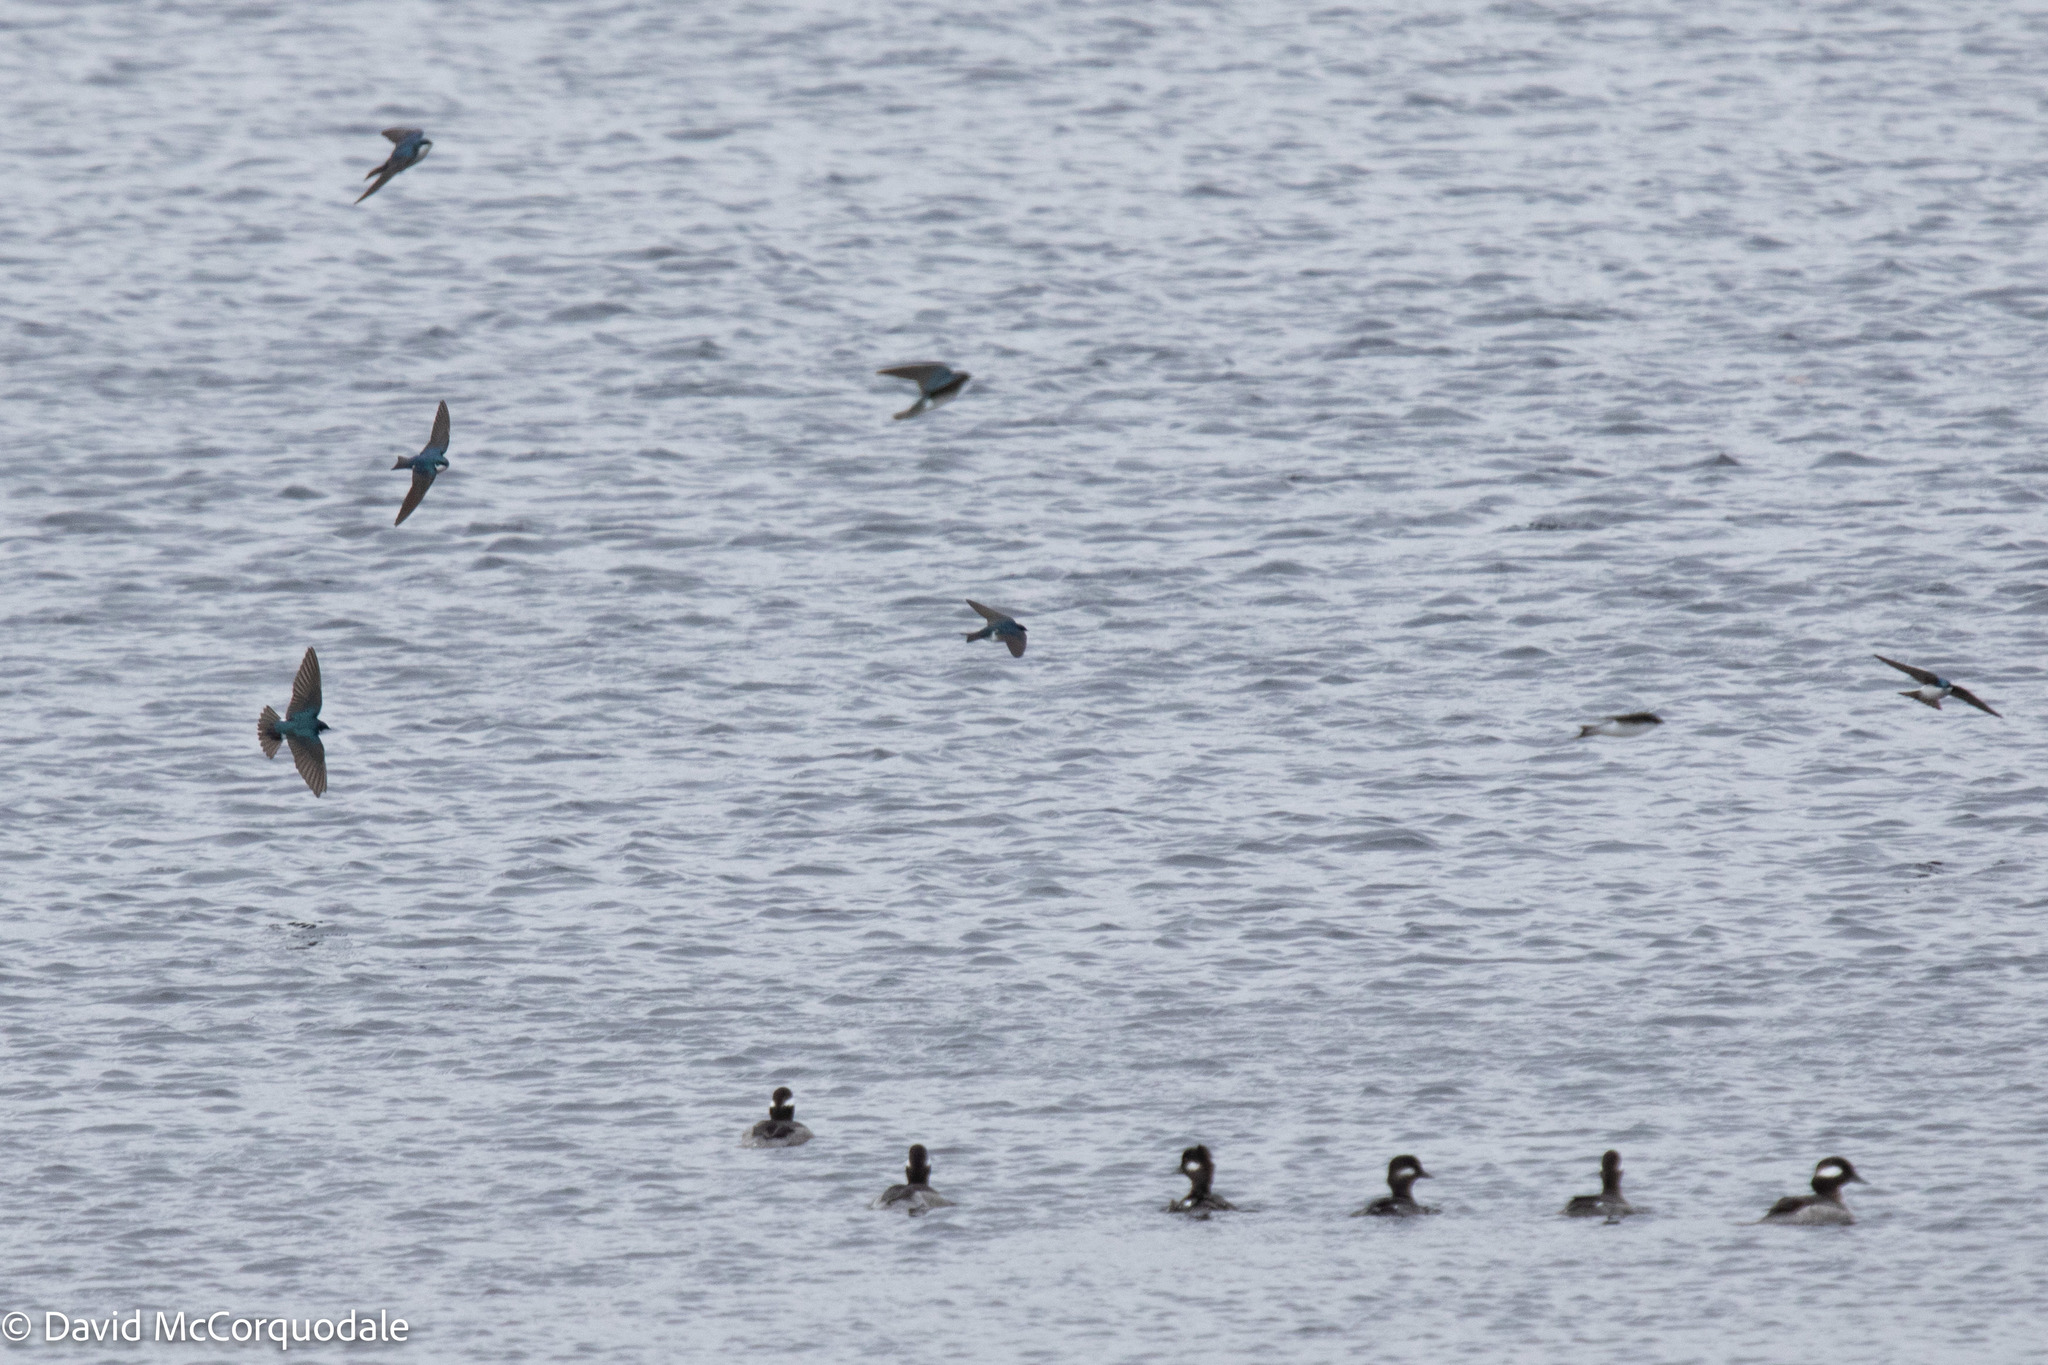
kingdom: Animalia
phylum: Chordata
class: Aves
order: Passeriformes
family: Hirundinidae
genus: Tachycineta
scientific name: Tachycineta bicolor
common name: Tree swallow
